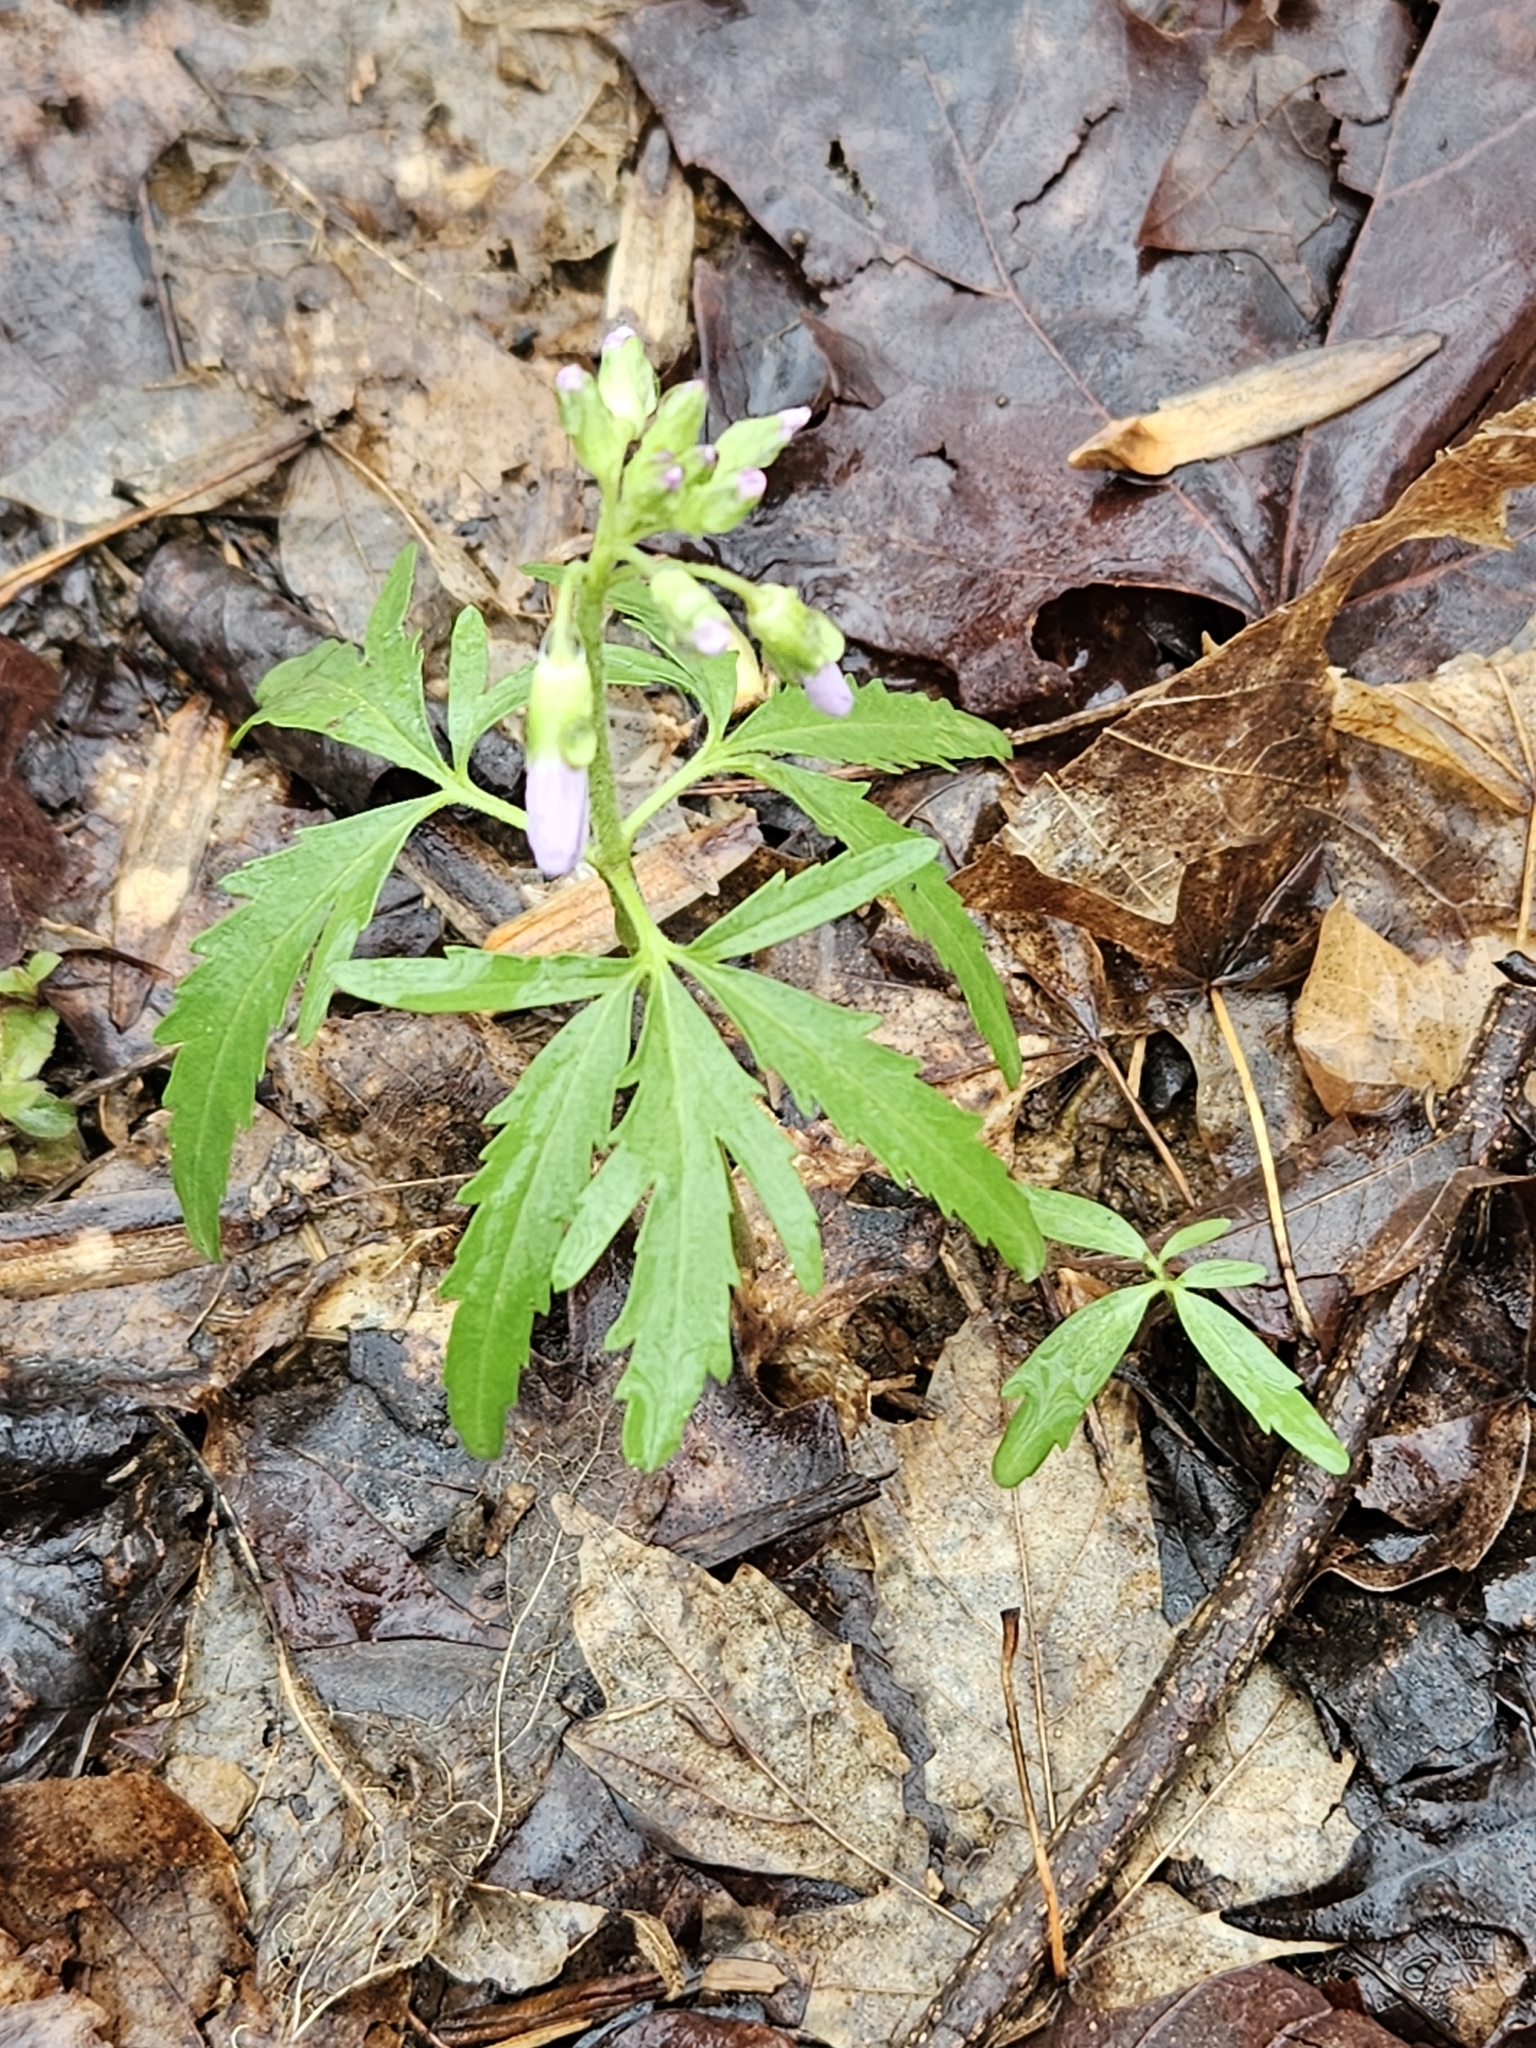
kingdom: Plantae
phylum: Tracheophyta
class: Magnoliopsida
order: Brassicales
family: Brassicaceae
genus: Cardamine
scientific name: Cardamine concatenata
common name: Cut-leaf toothcup
